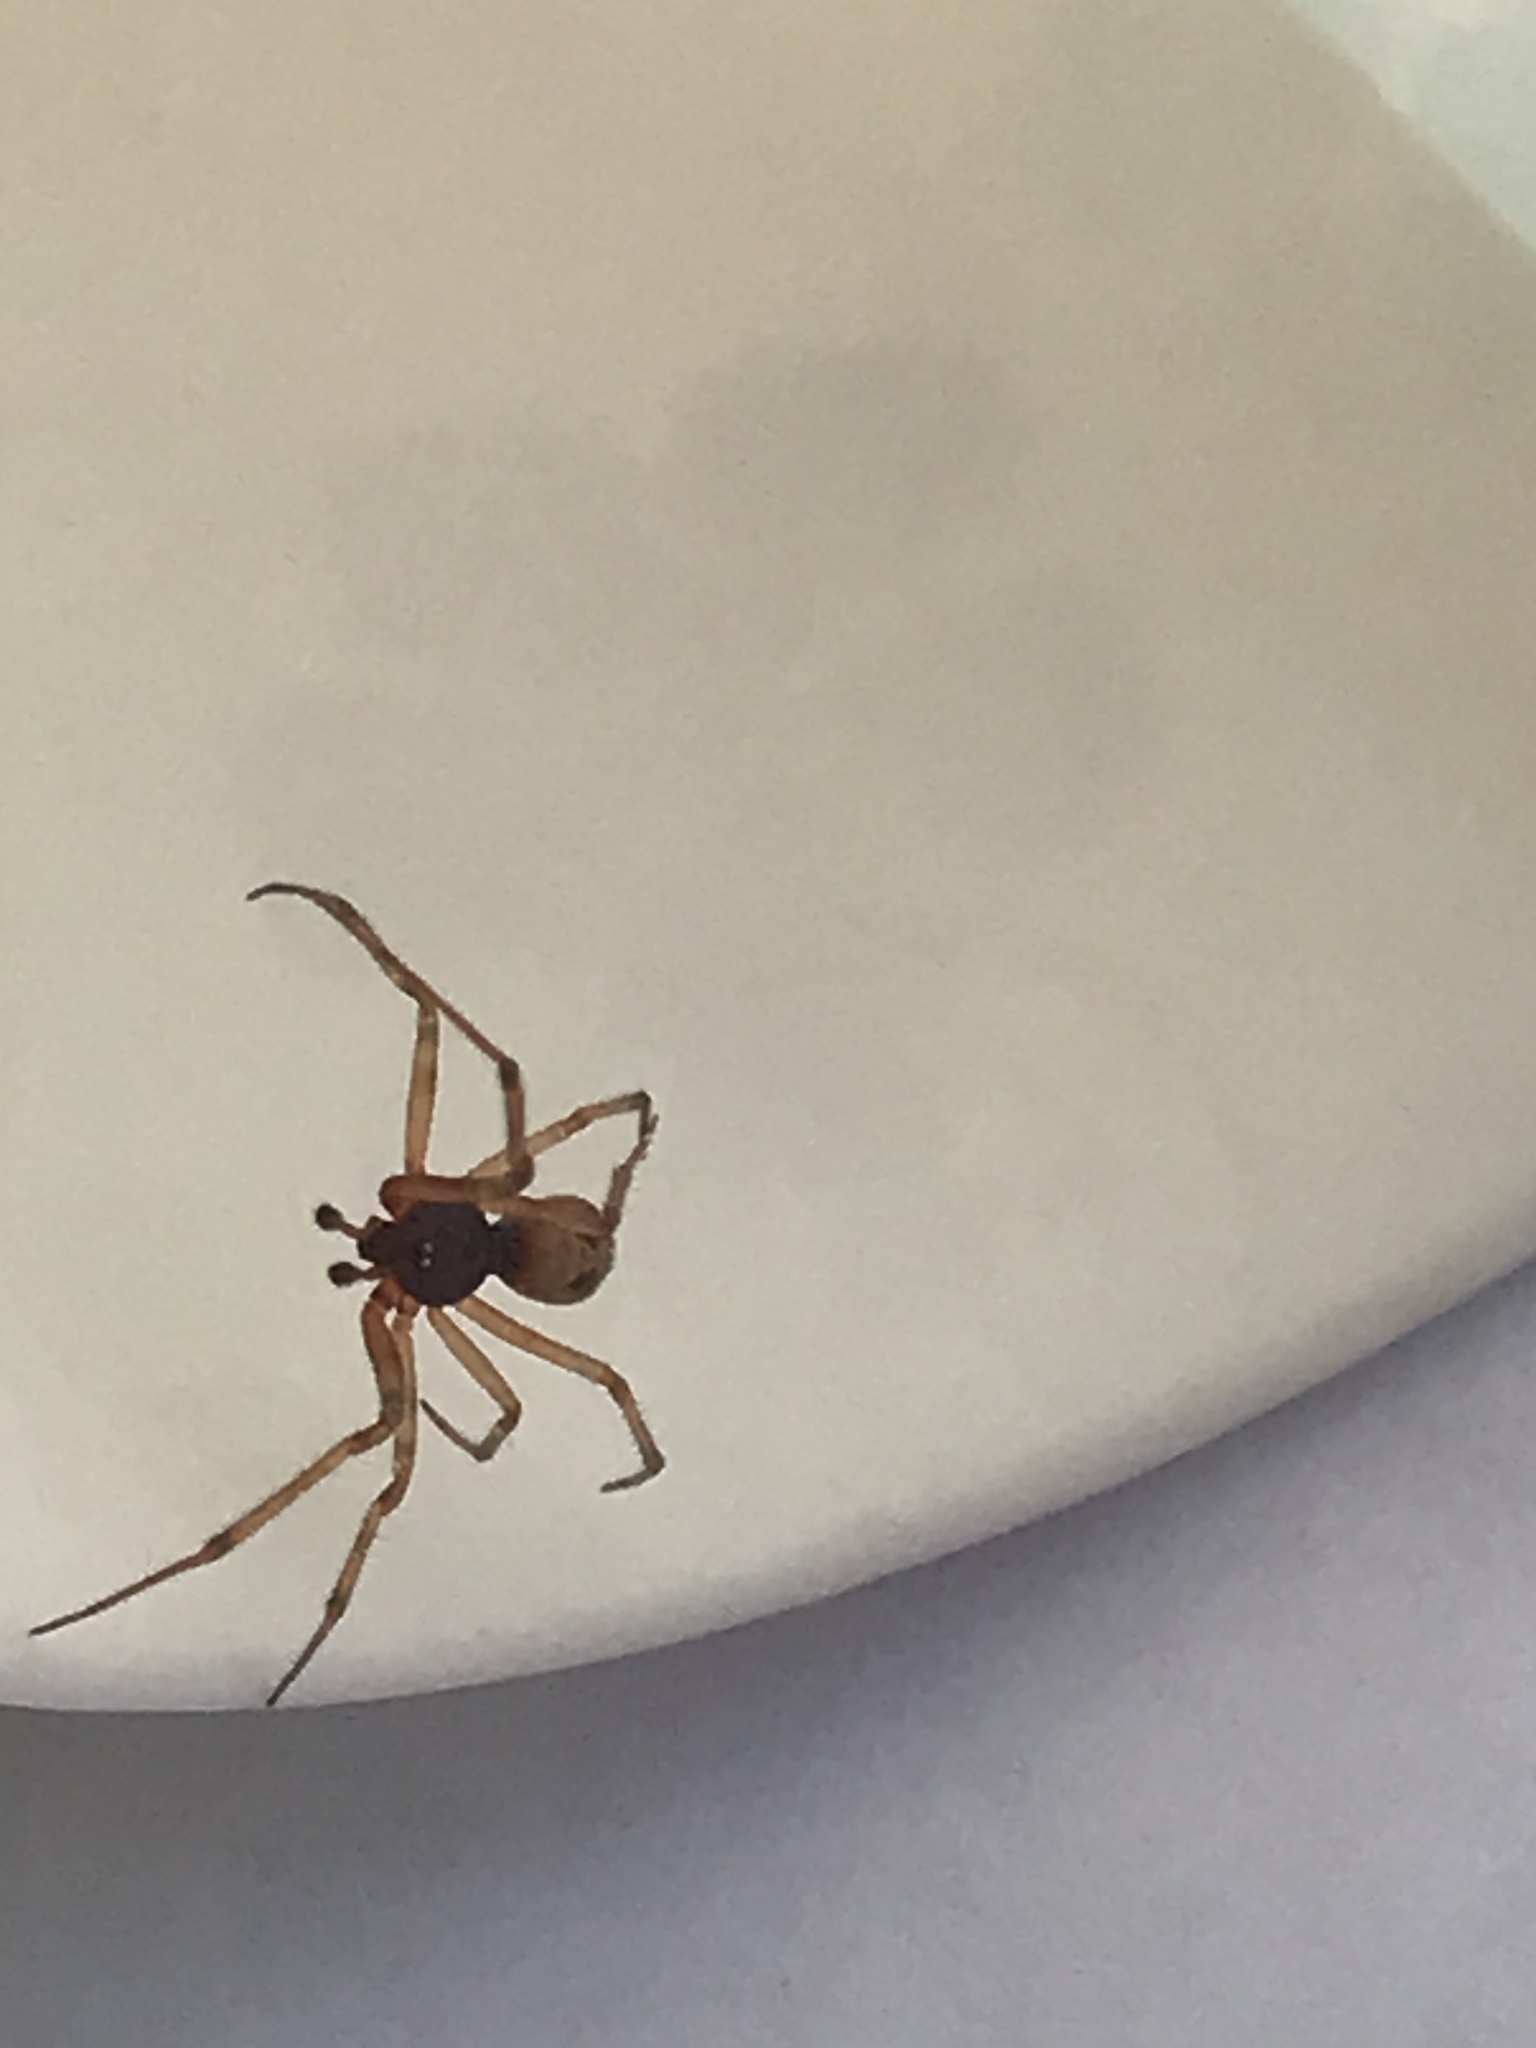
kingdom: Animalia
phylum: Arthropoda
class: Arachnida
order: Araneae
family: Theridiidae
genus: Steatoda
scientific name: Steatoda triangulosa
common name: Triangulate bud spider
